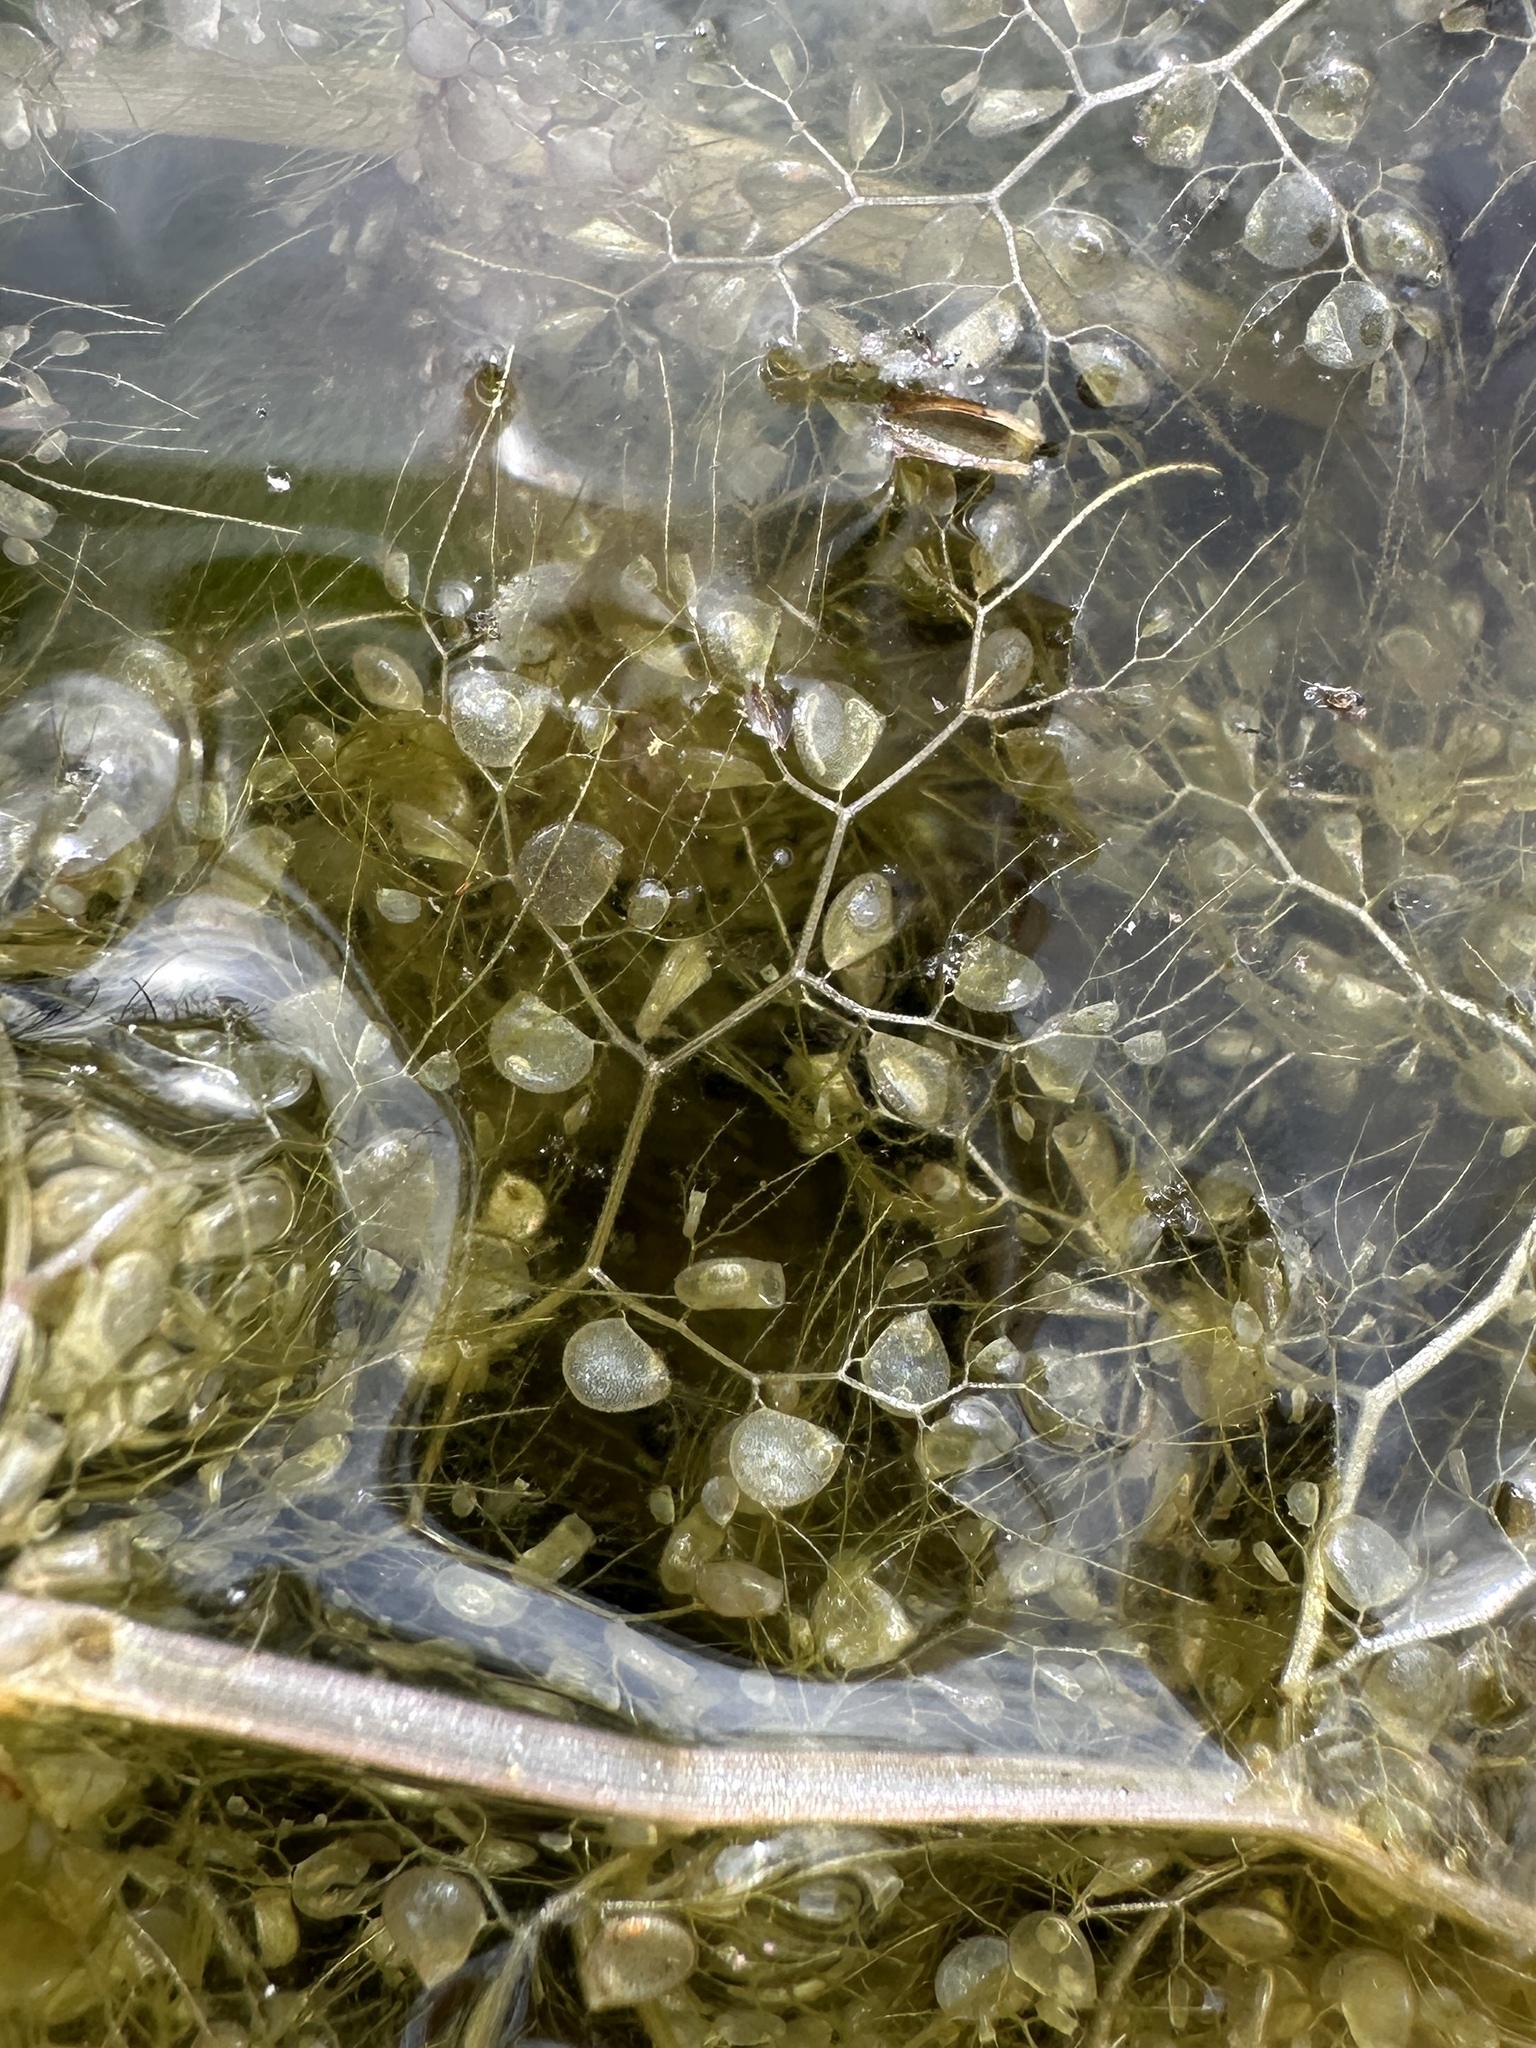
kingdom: Plantae
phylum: Tracheophyta
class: Magnoliopsida
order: Lamiales
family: Lentibulariaceae
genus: Utricularia
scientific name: Utricularia foliosa
